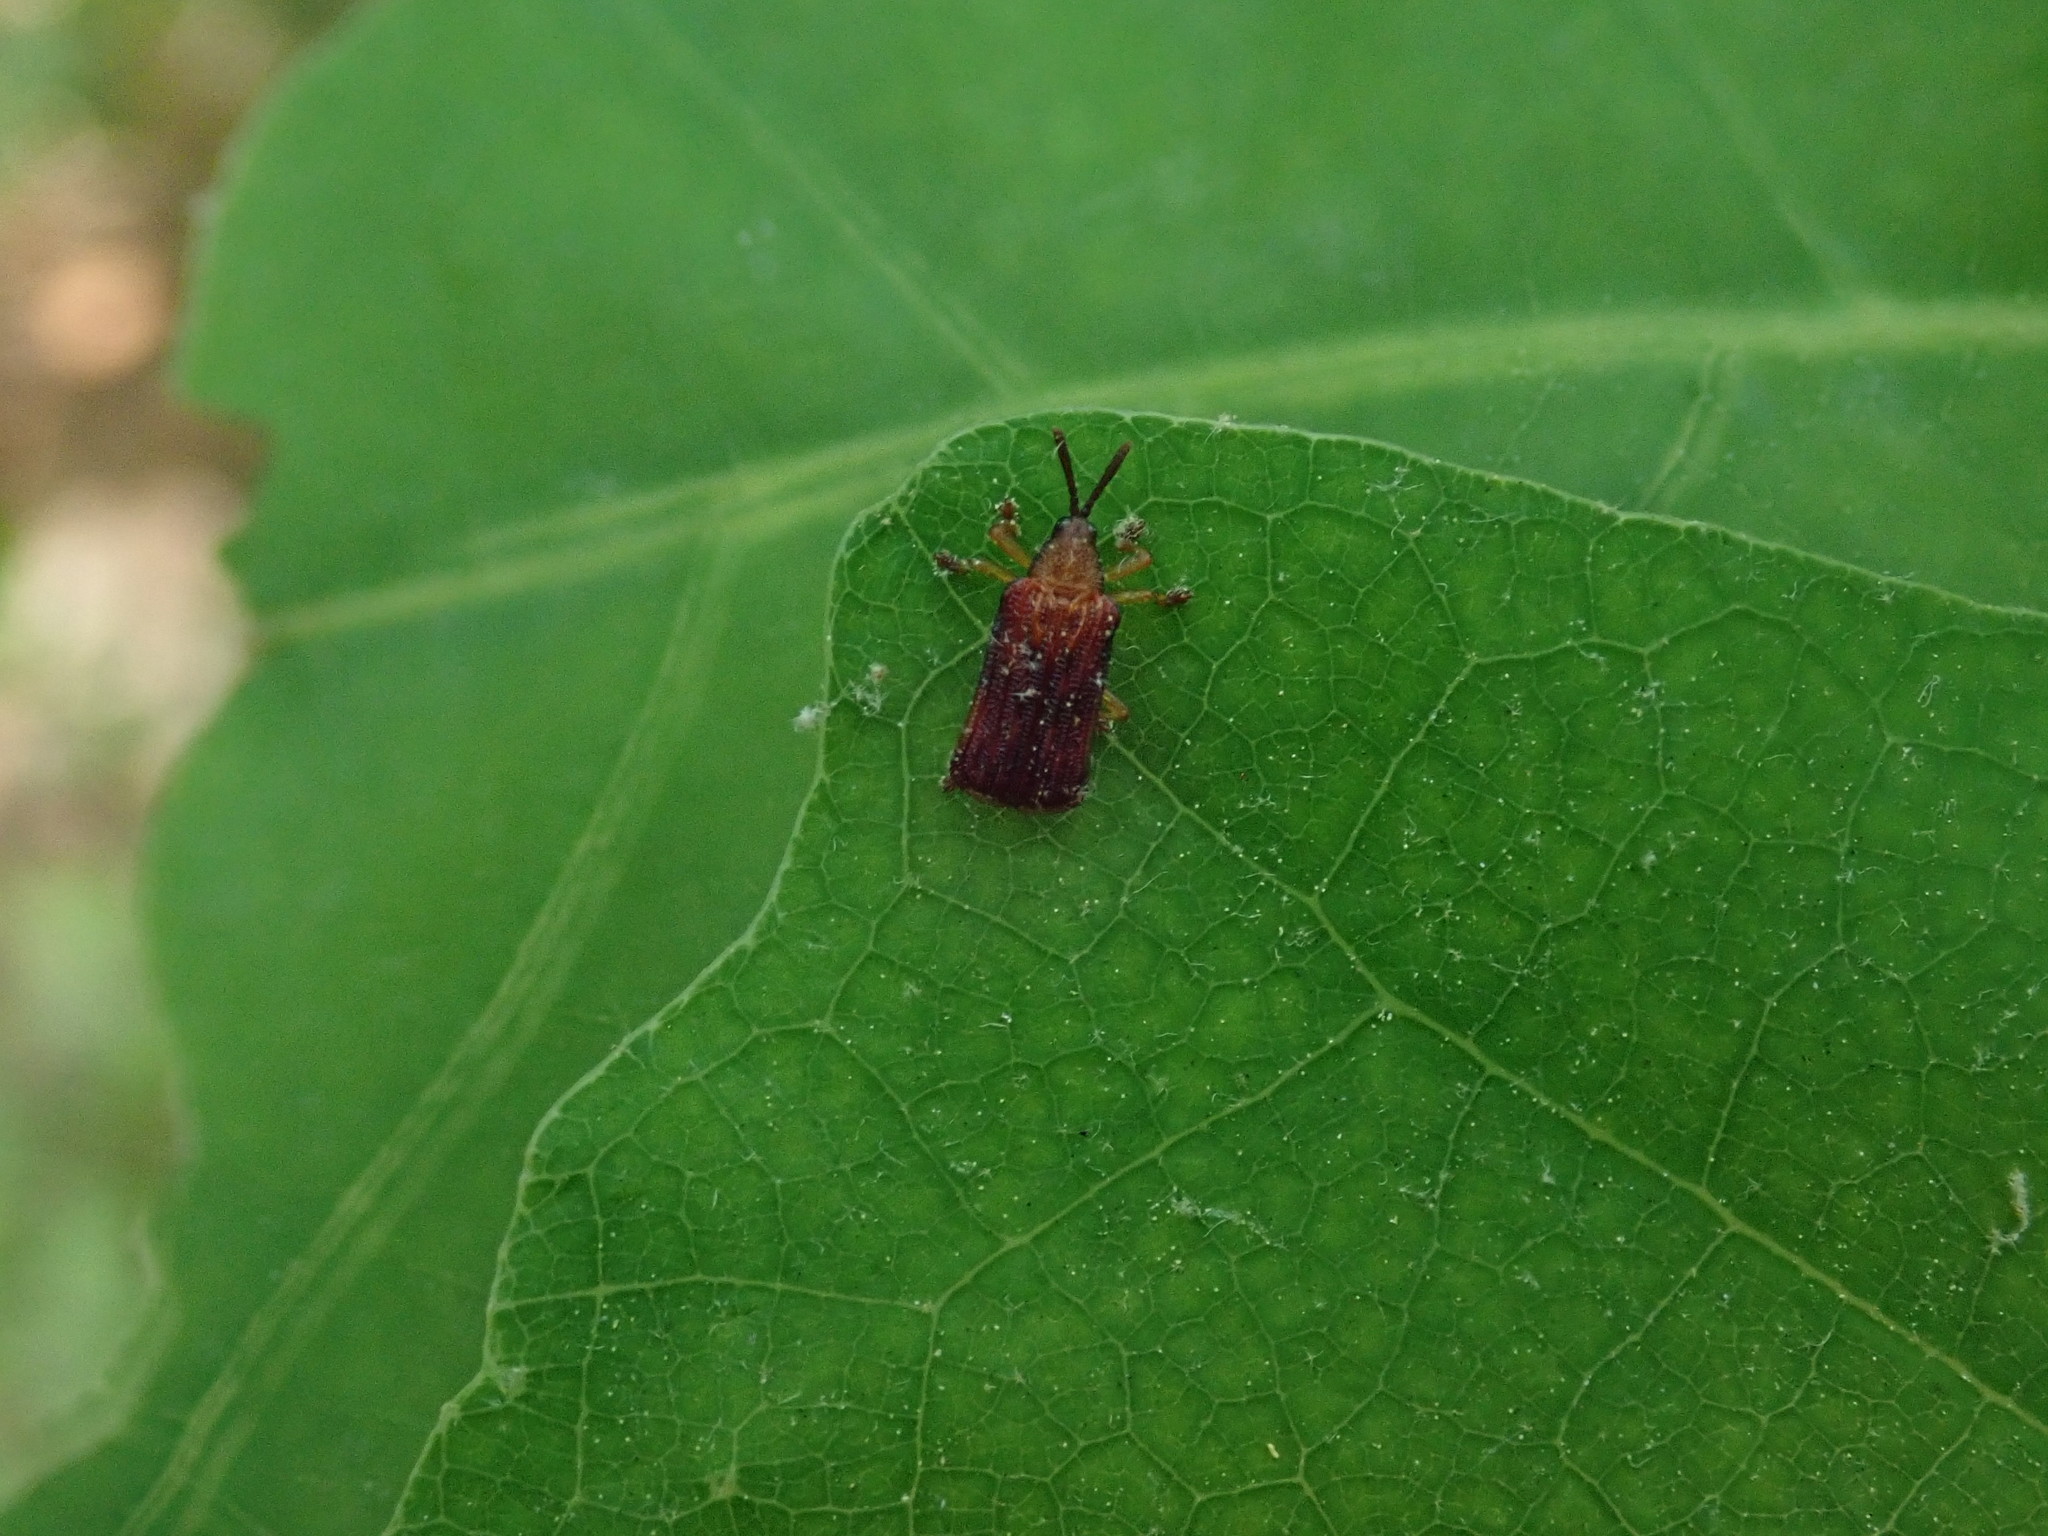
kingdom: Animalia
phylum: Arthropoda
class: Insecta
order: Coleoptera
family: Chrysomelidae
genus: Baliosus
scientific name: Baliosus nervosus
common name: Basswood leaf miner
